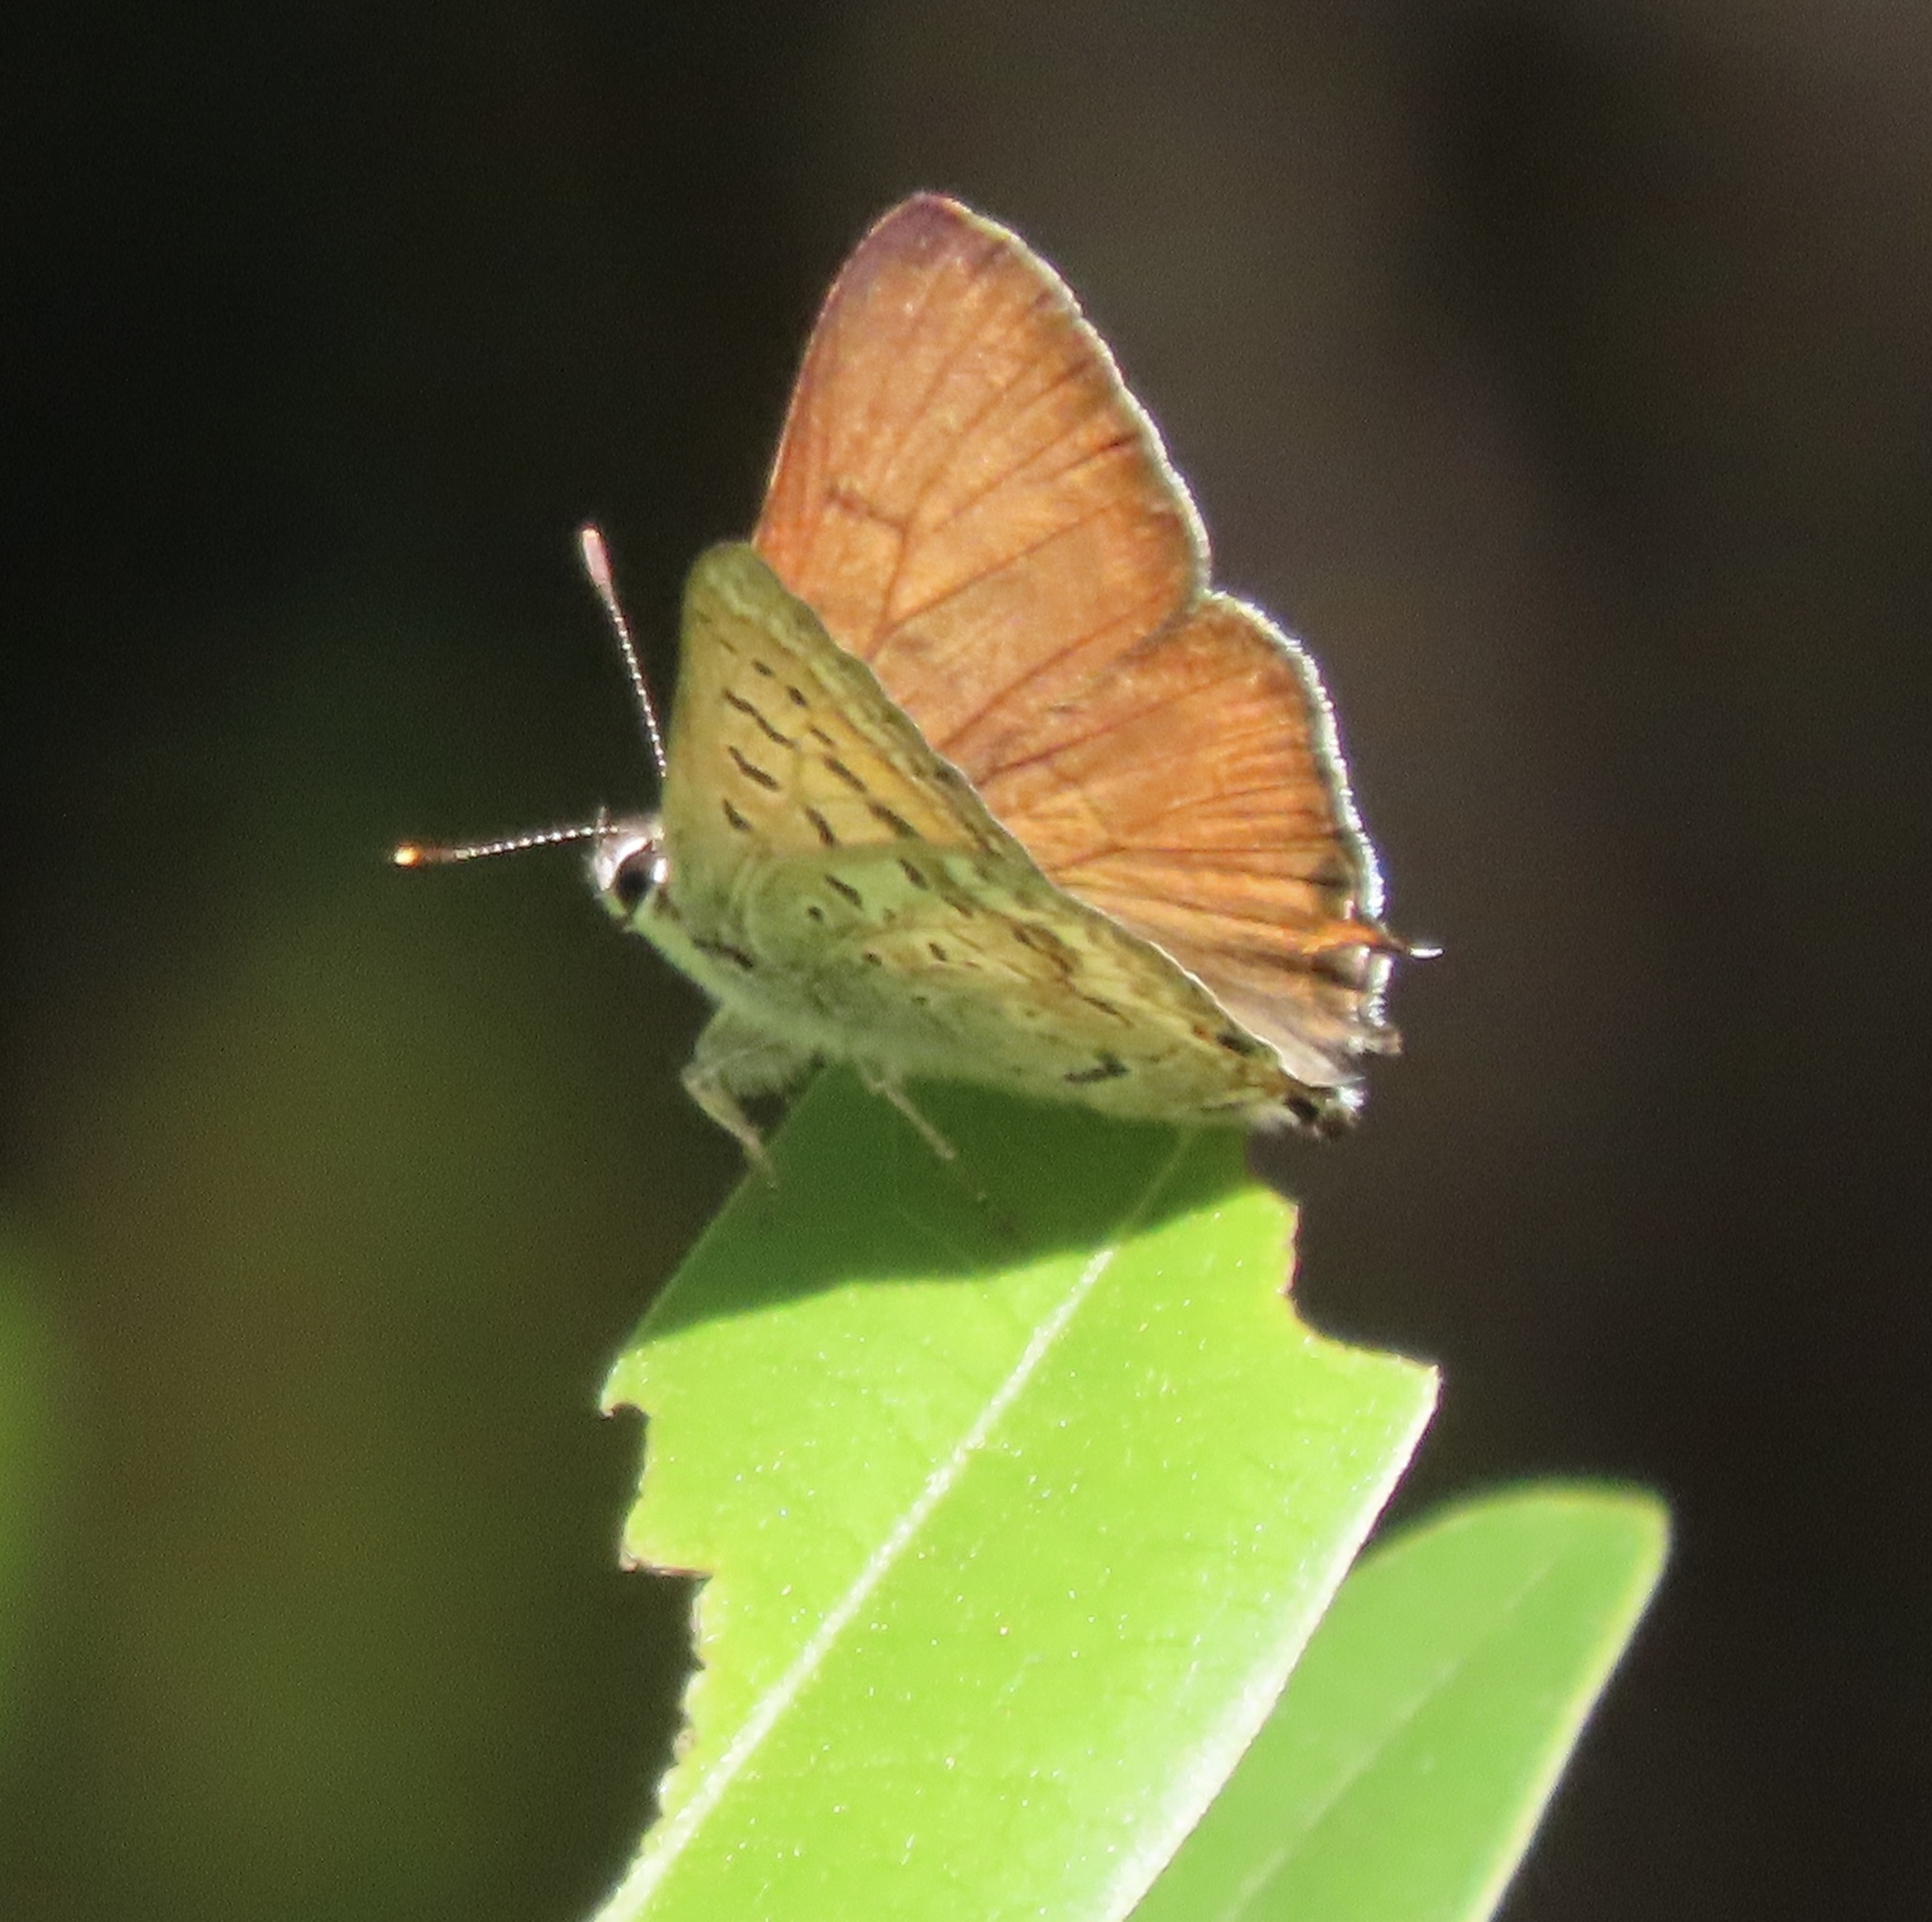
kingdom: Animalia
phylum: Arthropoda
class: Insecta
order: Lepidoptera
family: Lycaenidae
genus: Tharsalea
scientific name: Tharsalea arota
